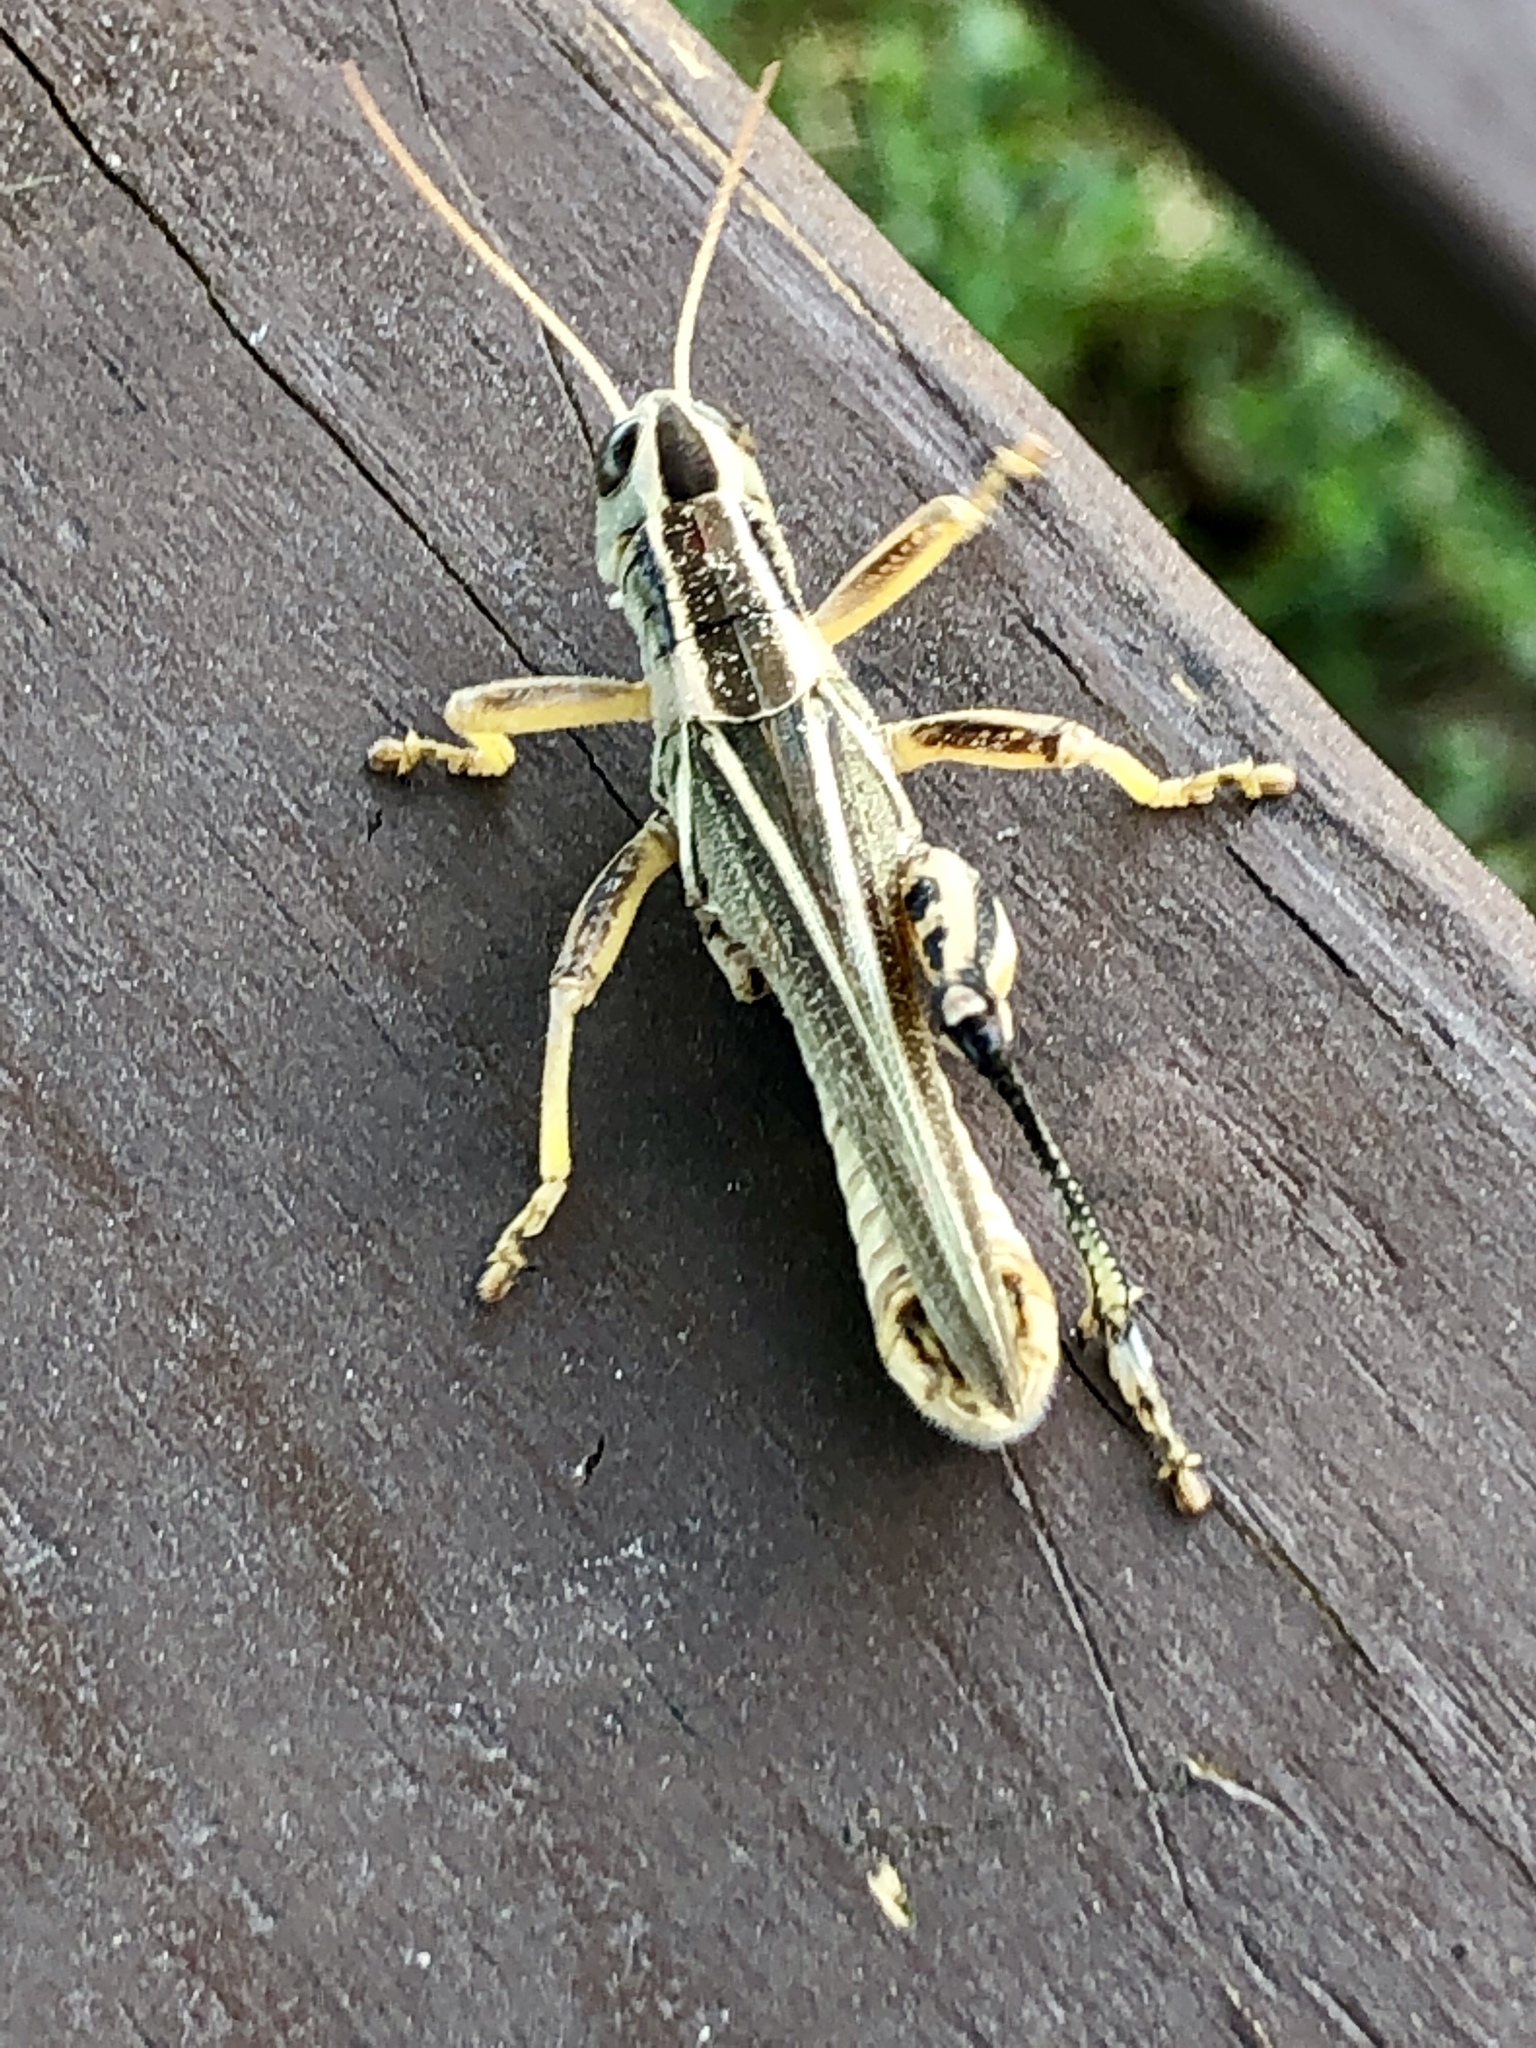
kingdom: Animalia
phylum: Arthropoda
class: Insecta
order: Orthoptera
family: Acrididae
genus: Melanoplus
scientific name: Melanoplus bivittatus
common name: Two-striped grasshopper
